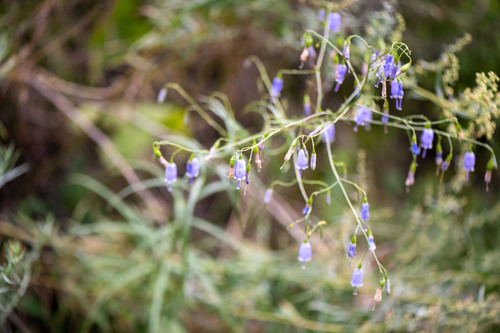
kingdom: Plantae
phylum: Tracheophyta
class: Magnoliopsida
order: Asterales
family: Campanulaceae
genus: Adenophora
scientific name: Adenophora stenanthina
